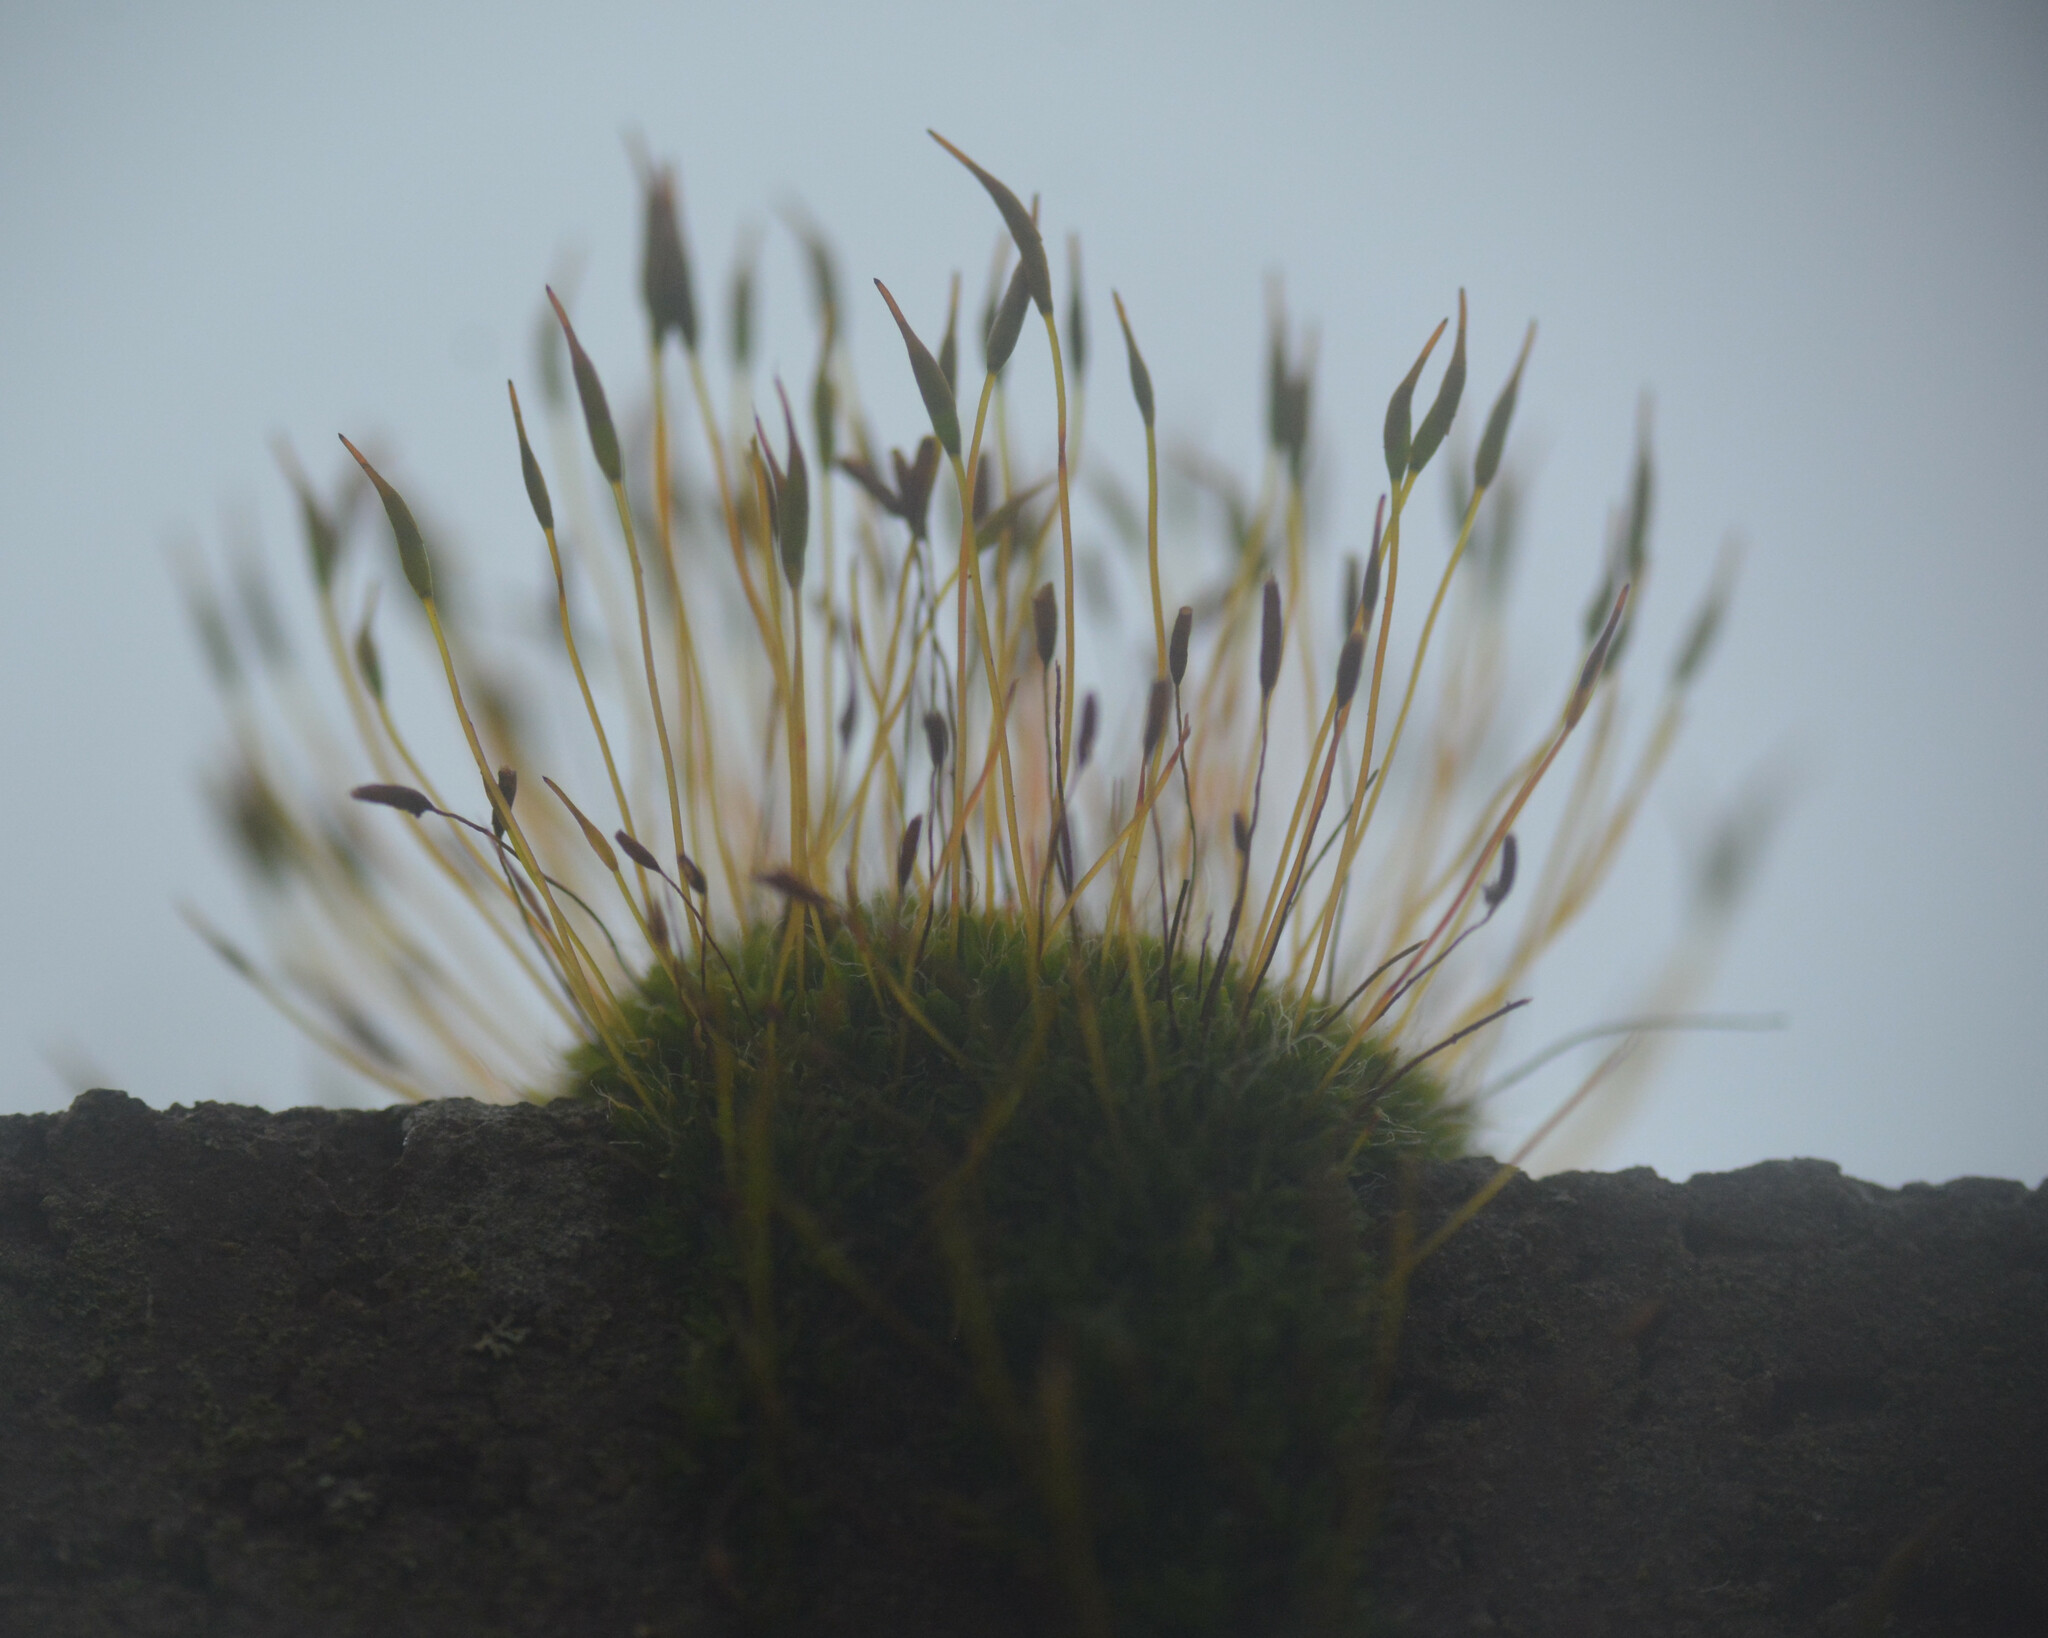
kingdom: Plantae
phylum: Bryophyta
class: Bryopsida
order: Pottiales
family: Pottiaceae
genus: Tortula
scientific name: Tortula muralis
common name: Wall screw-moss
